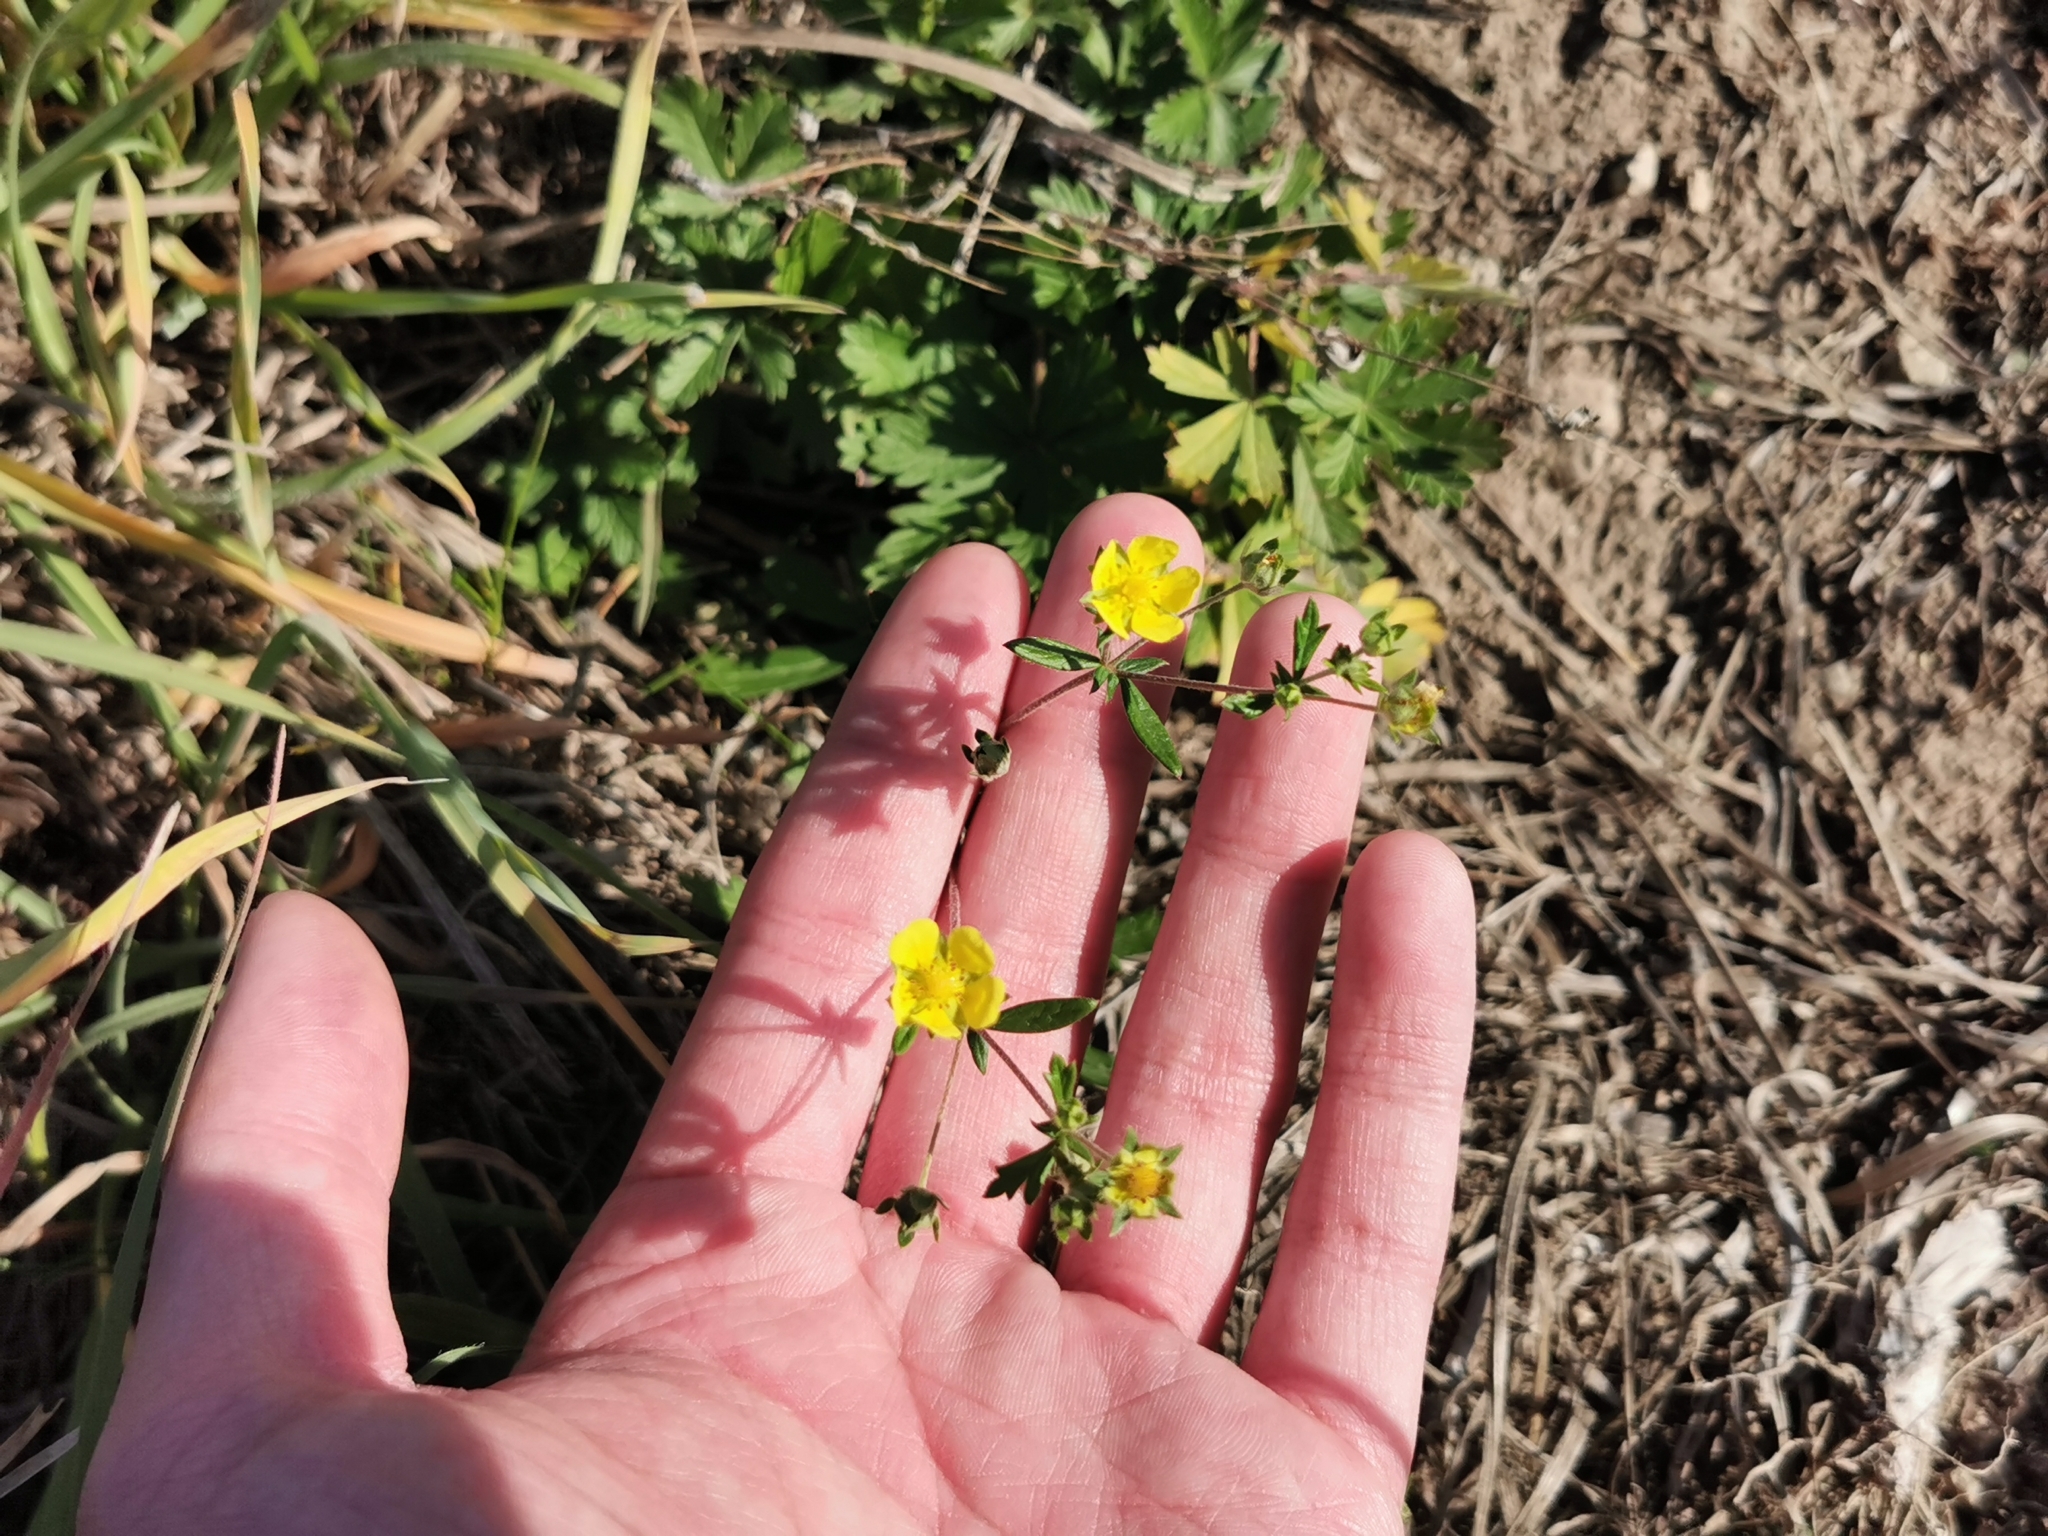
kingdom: Plantae
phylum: Tracheophyta
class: Magnoliopsida
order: Rosales
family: Rosaceae
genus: Potentilla
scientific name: Potentilla argentea
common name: Hoary cinquefoil
